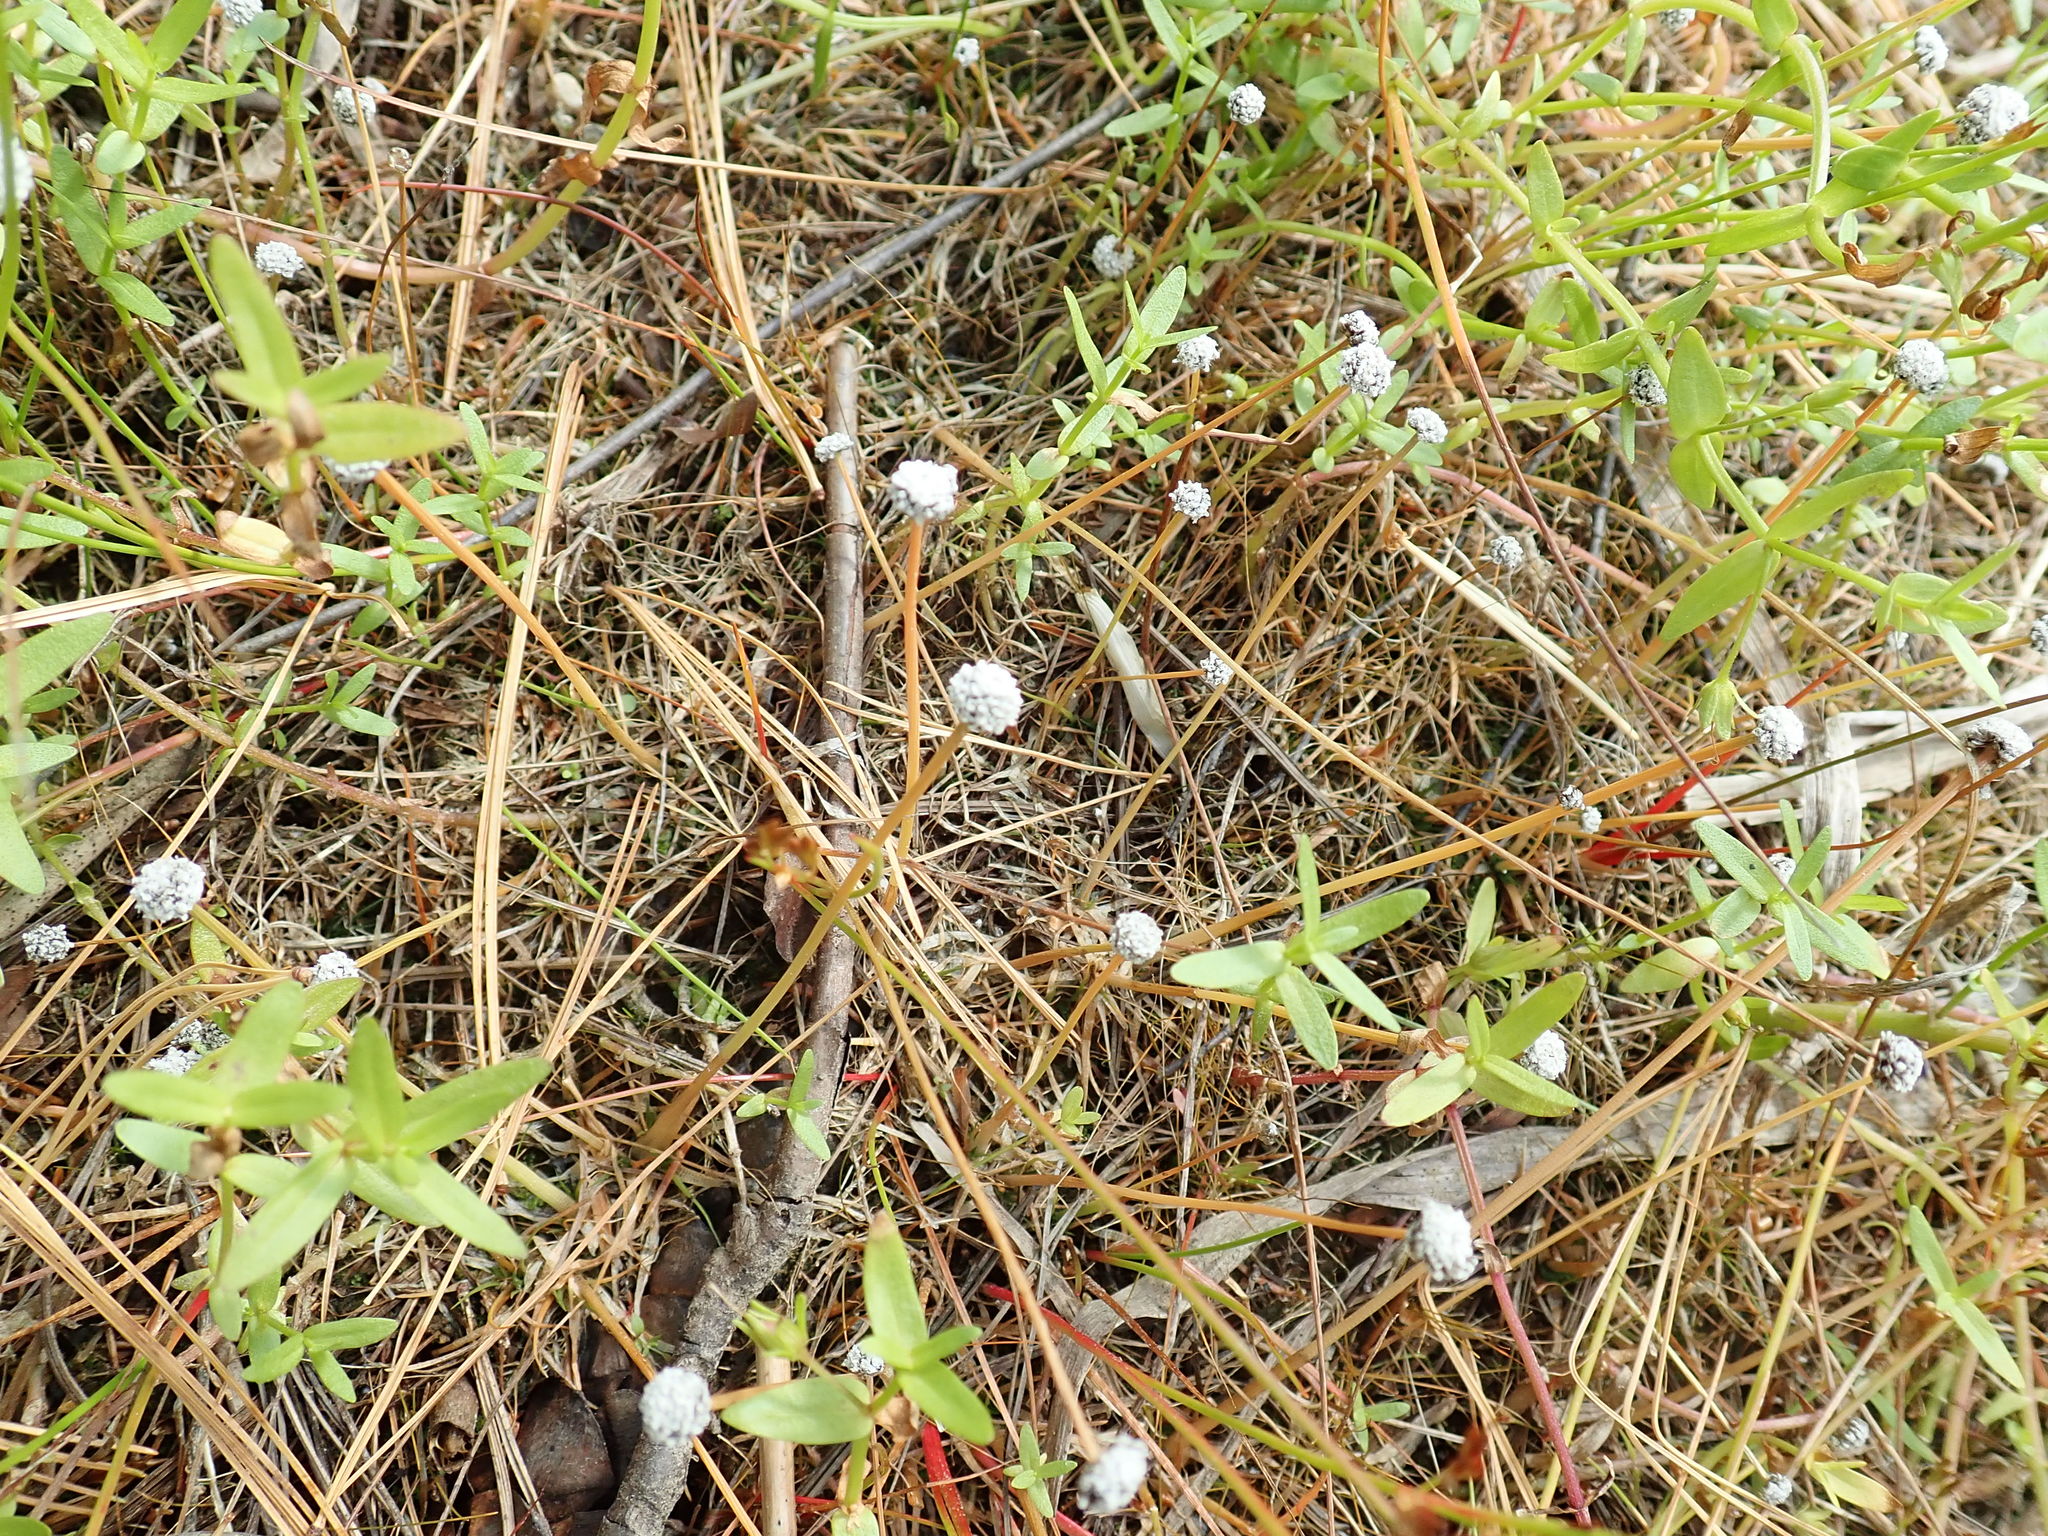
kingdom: Plantae
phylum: Tracheophyta
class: Liliopsida
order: Poales
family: Eriocaulaceae
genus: Eriocaulon
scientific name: Eriocaulon aquaticum
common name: Pipewort
